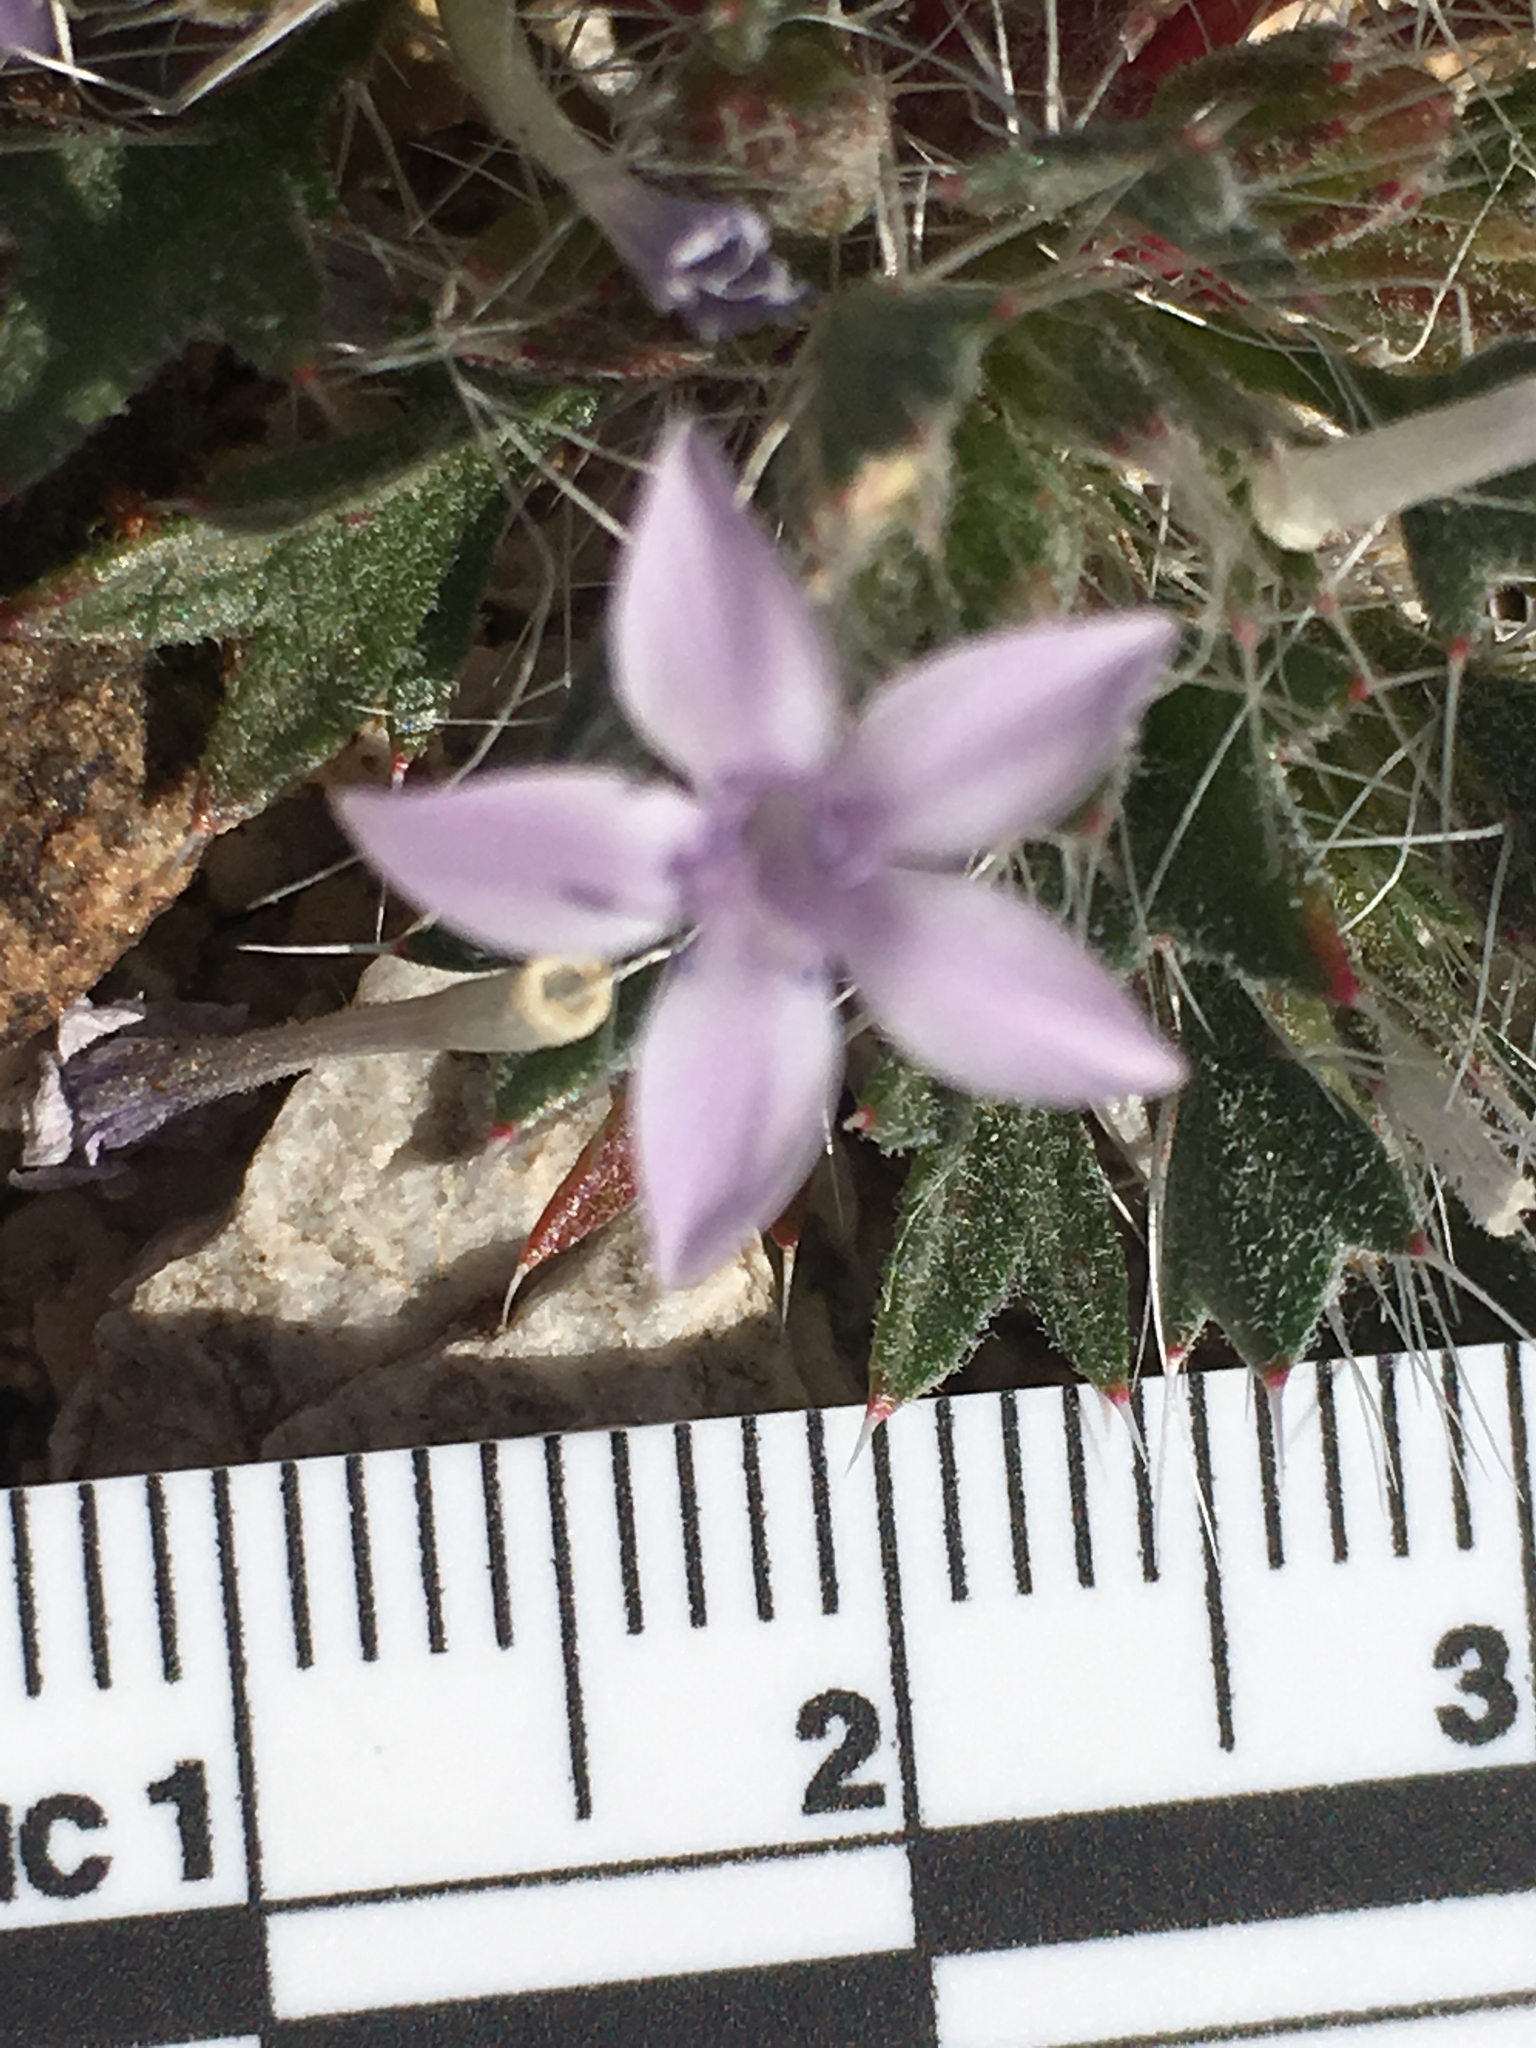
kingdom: Plantae
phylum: Tracheophyta
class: Magnoliopsida
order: Ericales
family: Polemoniaceae
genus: Langloisia
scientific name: Langloisia setosissima
